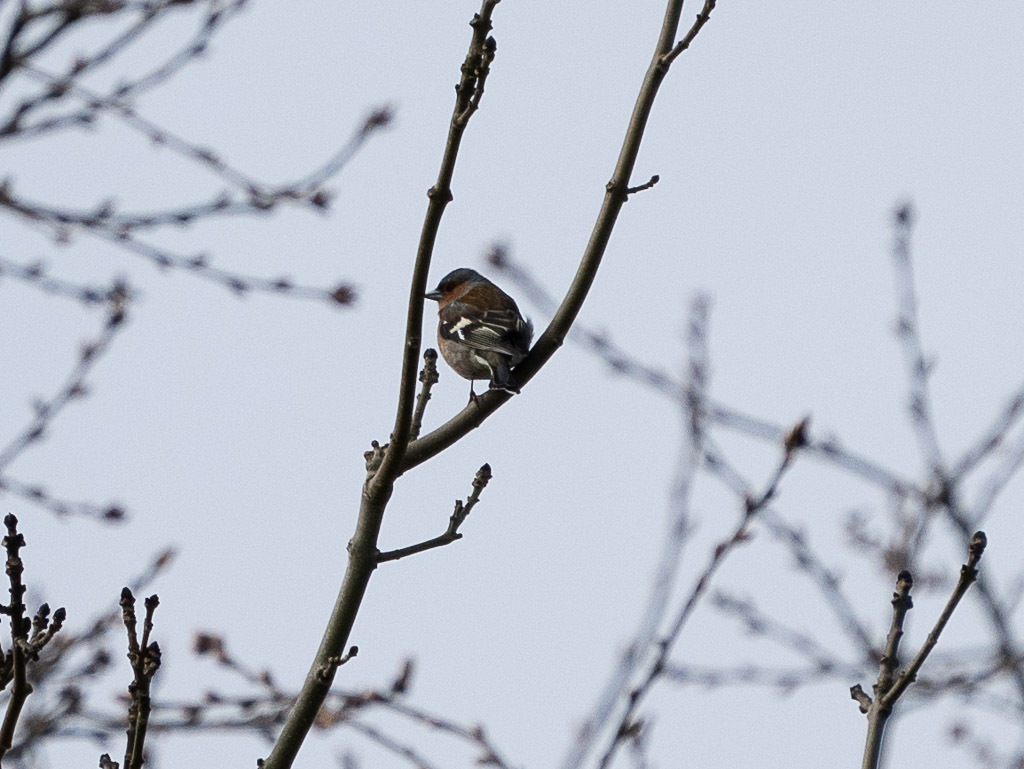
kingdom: Animalia
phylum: Chordata
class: Aves
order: Passeriformes
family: Fringillidae
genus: Fringilla
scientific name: Fringilla coelebs
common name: Common chaffinch
